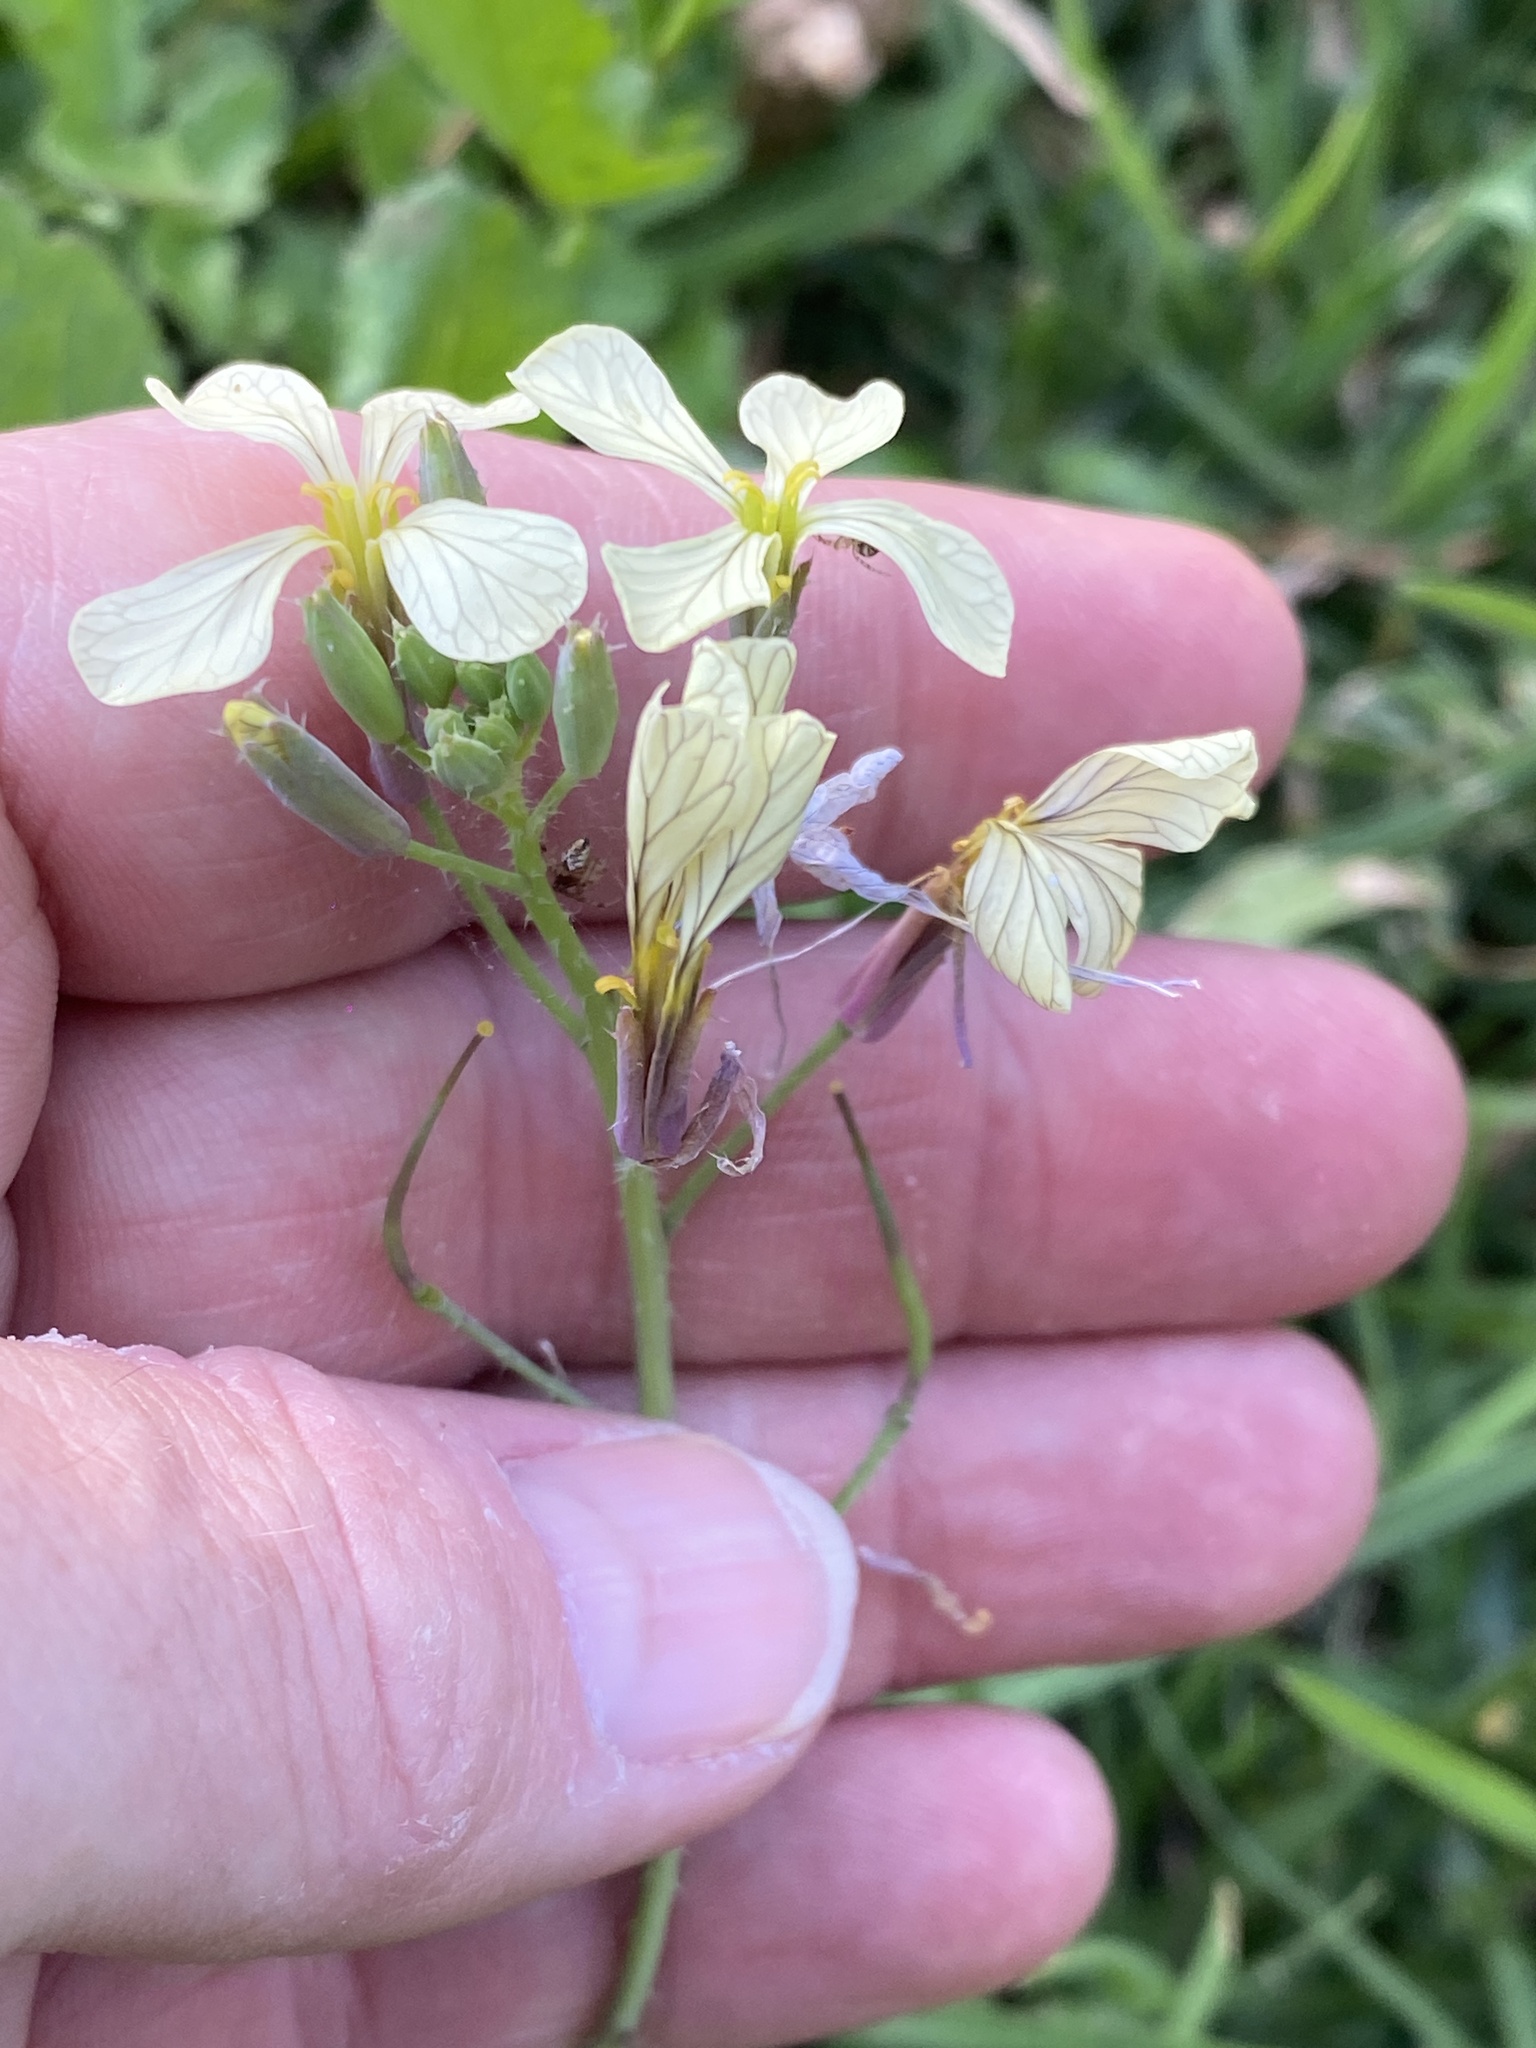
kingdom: Plantae
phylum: Tracheophyta
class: Magnoliopsida
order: Brassicales
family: Brassicaceae
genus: Raphanus
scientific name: Raphanus raphanistrum
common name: Wild radish
